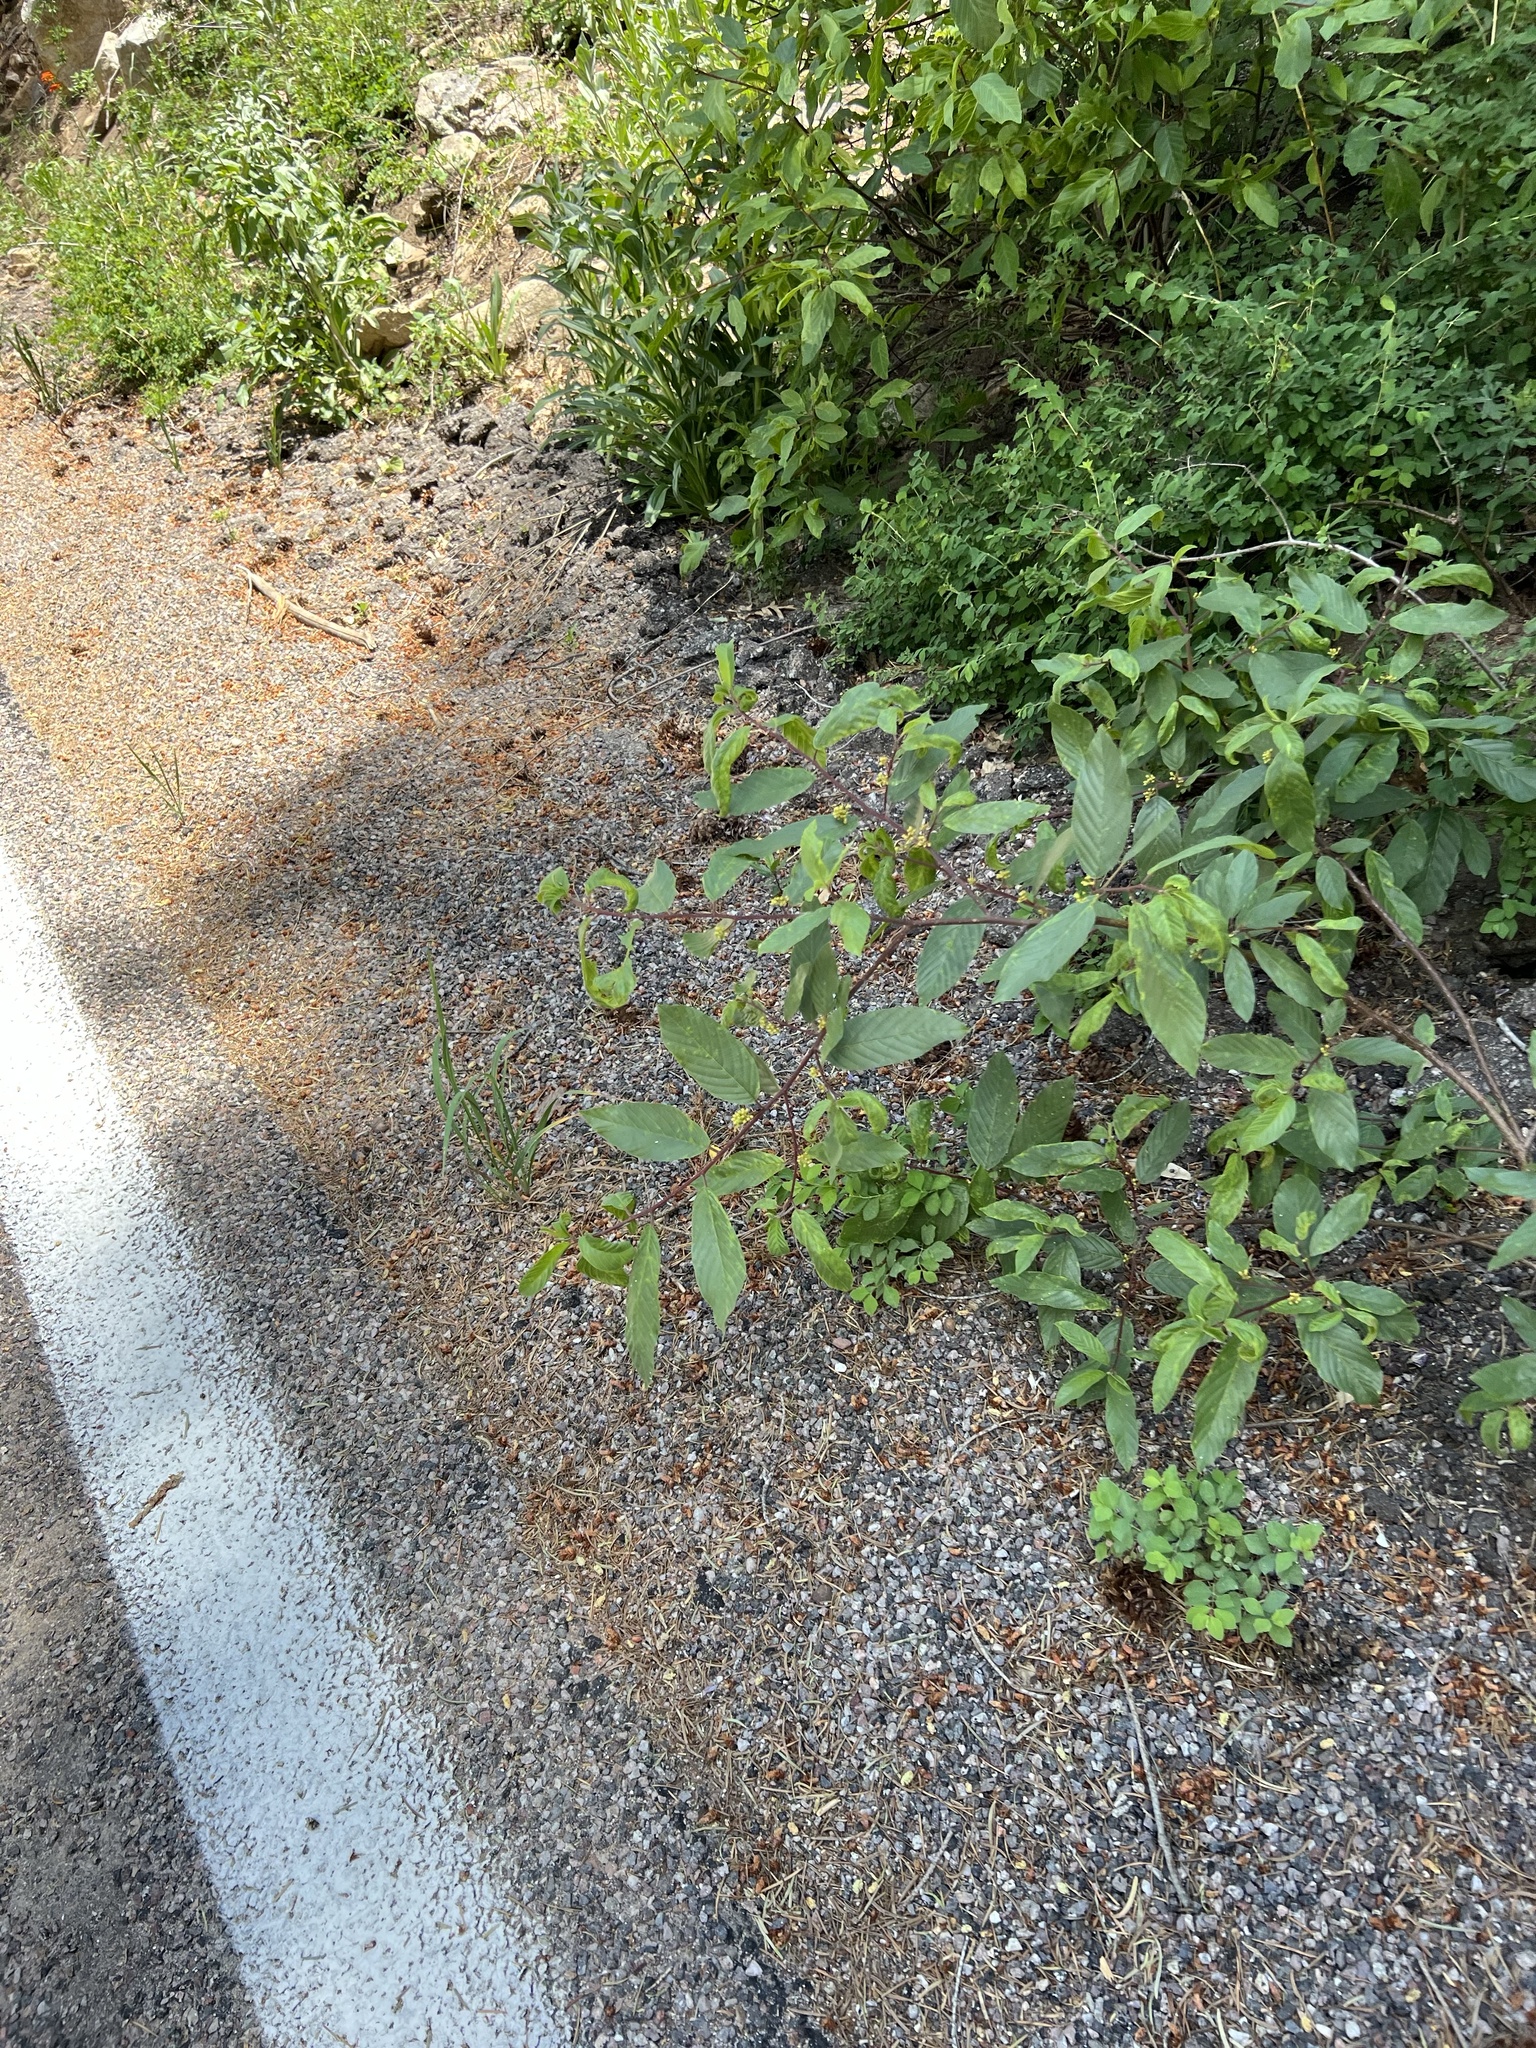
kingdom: Plantae
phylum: Tracheophyta
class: Magnoliopsida
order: Rosales
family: Rhamnaceae
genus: Frangula
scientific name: Frangula betulifolia
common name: Birch-leaf buckthorn
